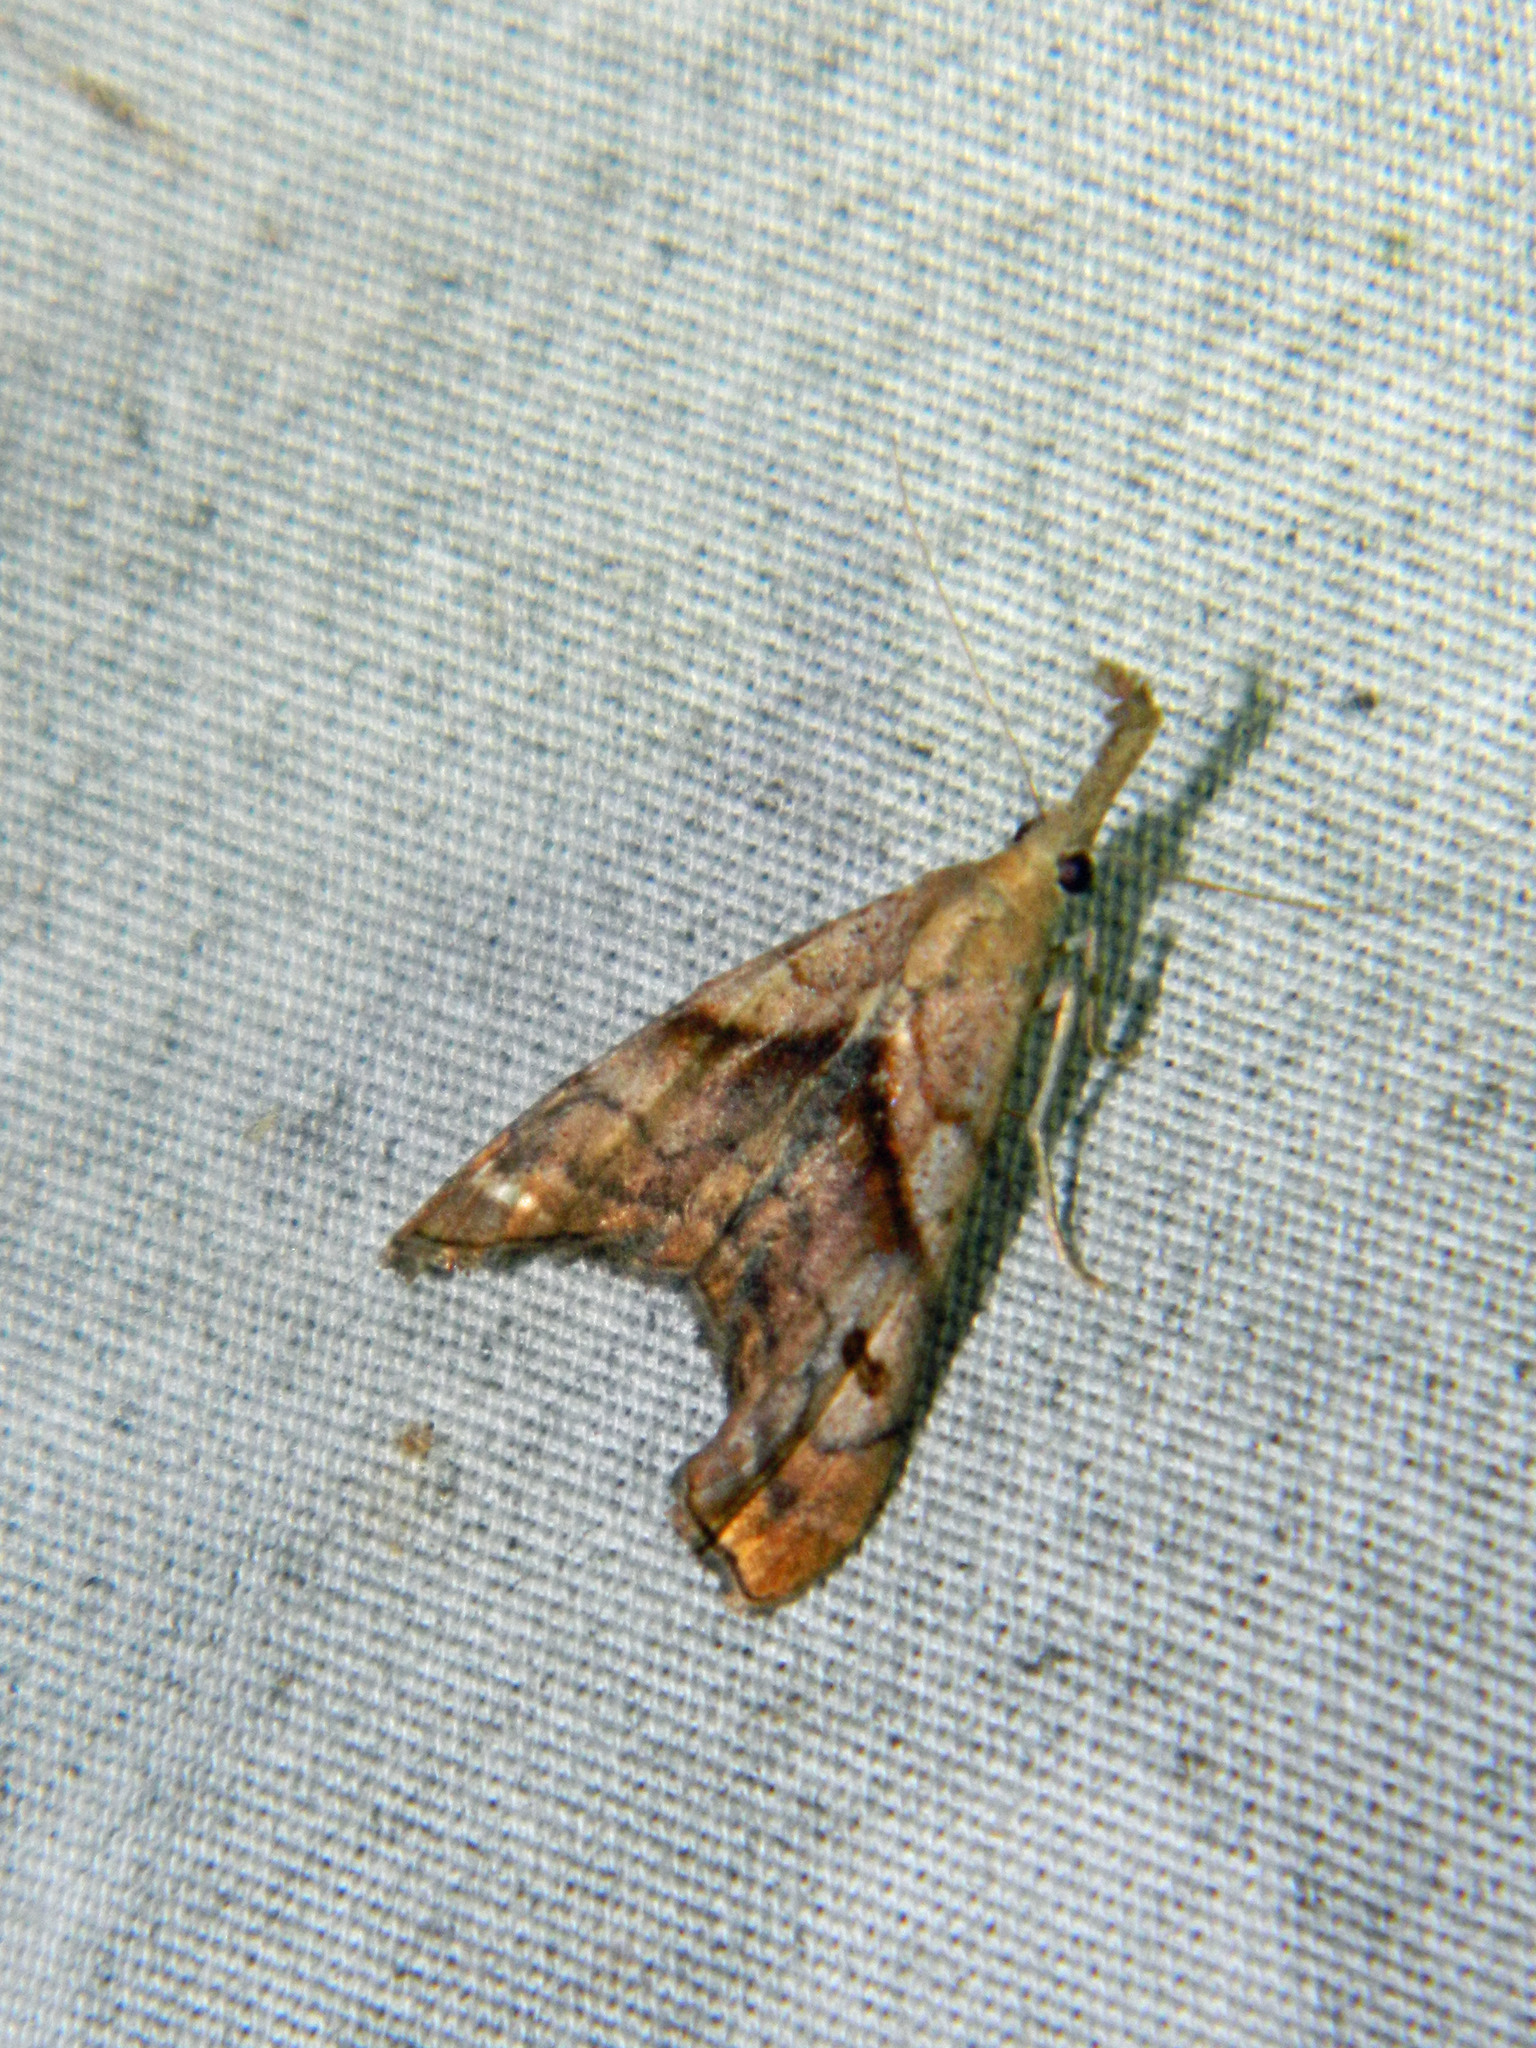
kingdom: Animalia
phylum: Arthropoda
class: Insecta
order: Lepidoptera
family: Erebidae
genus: Palthis
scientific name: Palthis angulalis
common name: Dark-spotted palthis moth
